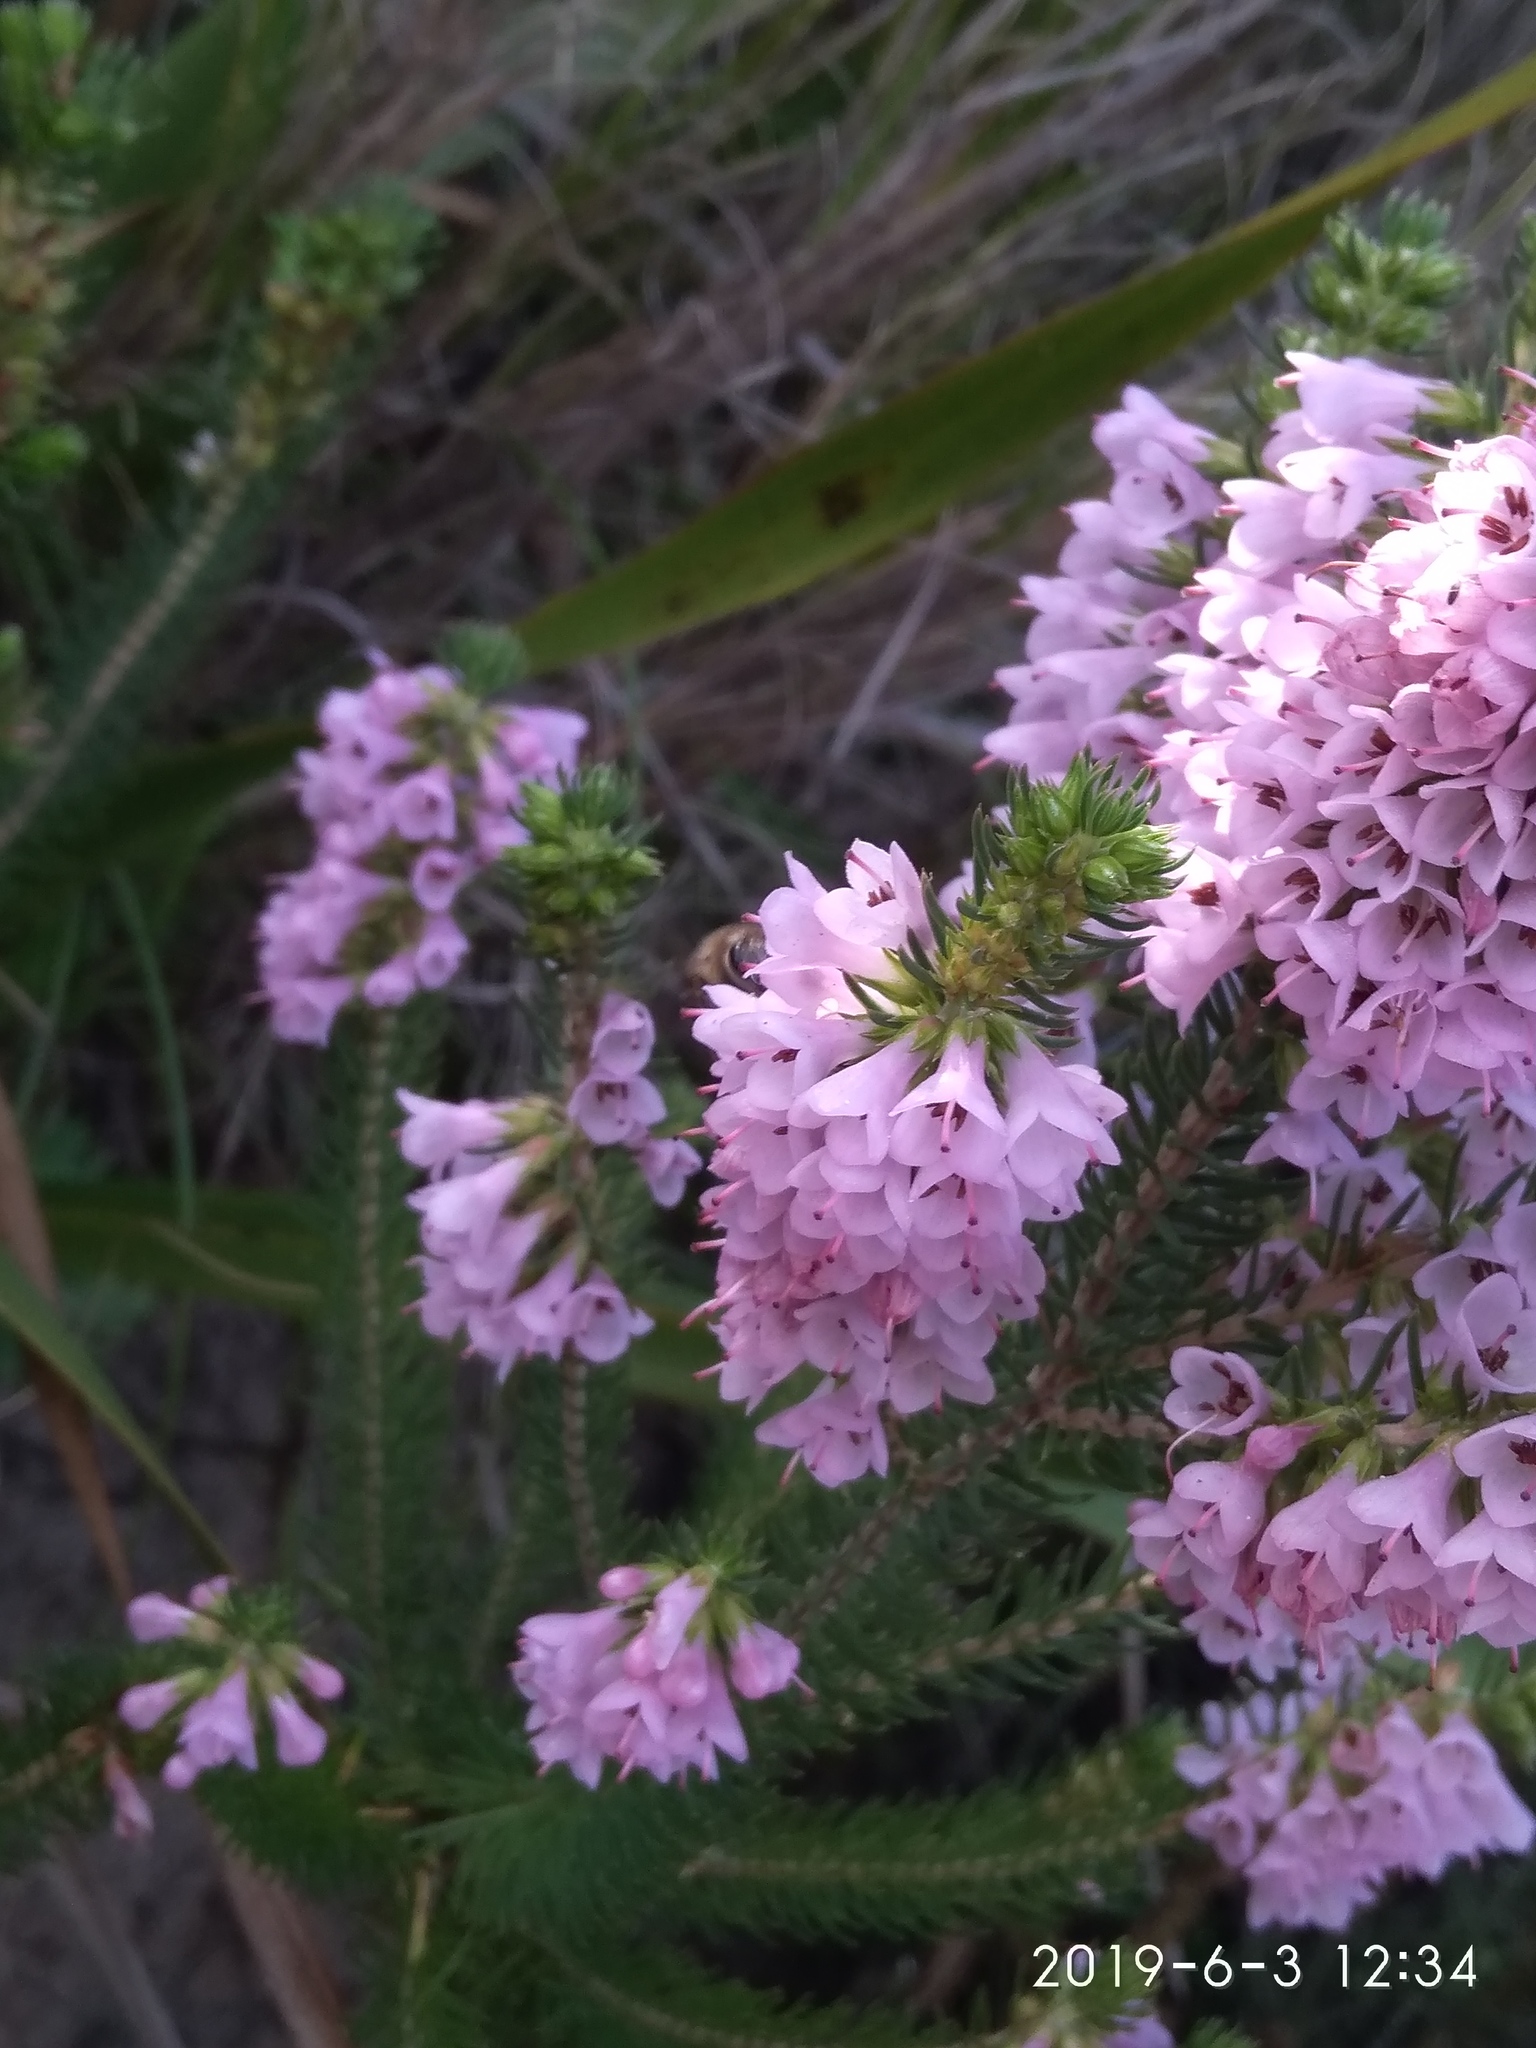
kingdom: Plantae
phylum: Tracheophyta
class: Magnoliopsida
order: Ericales
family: Ericaceae
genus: Erica
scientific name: Erica abietina
